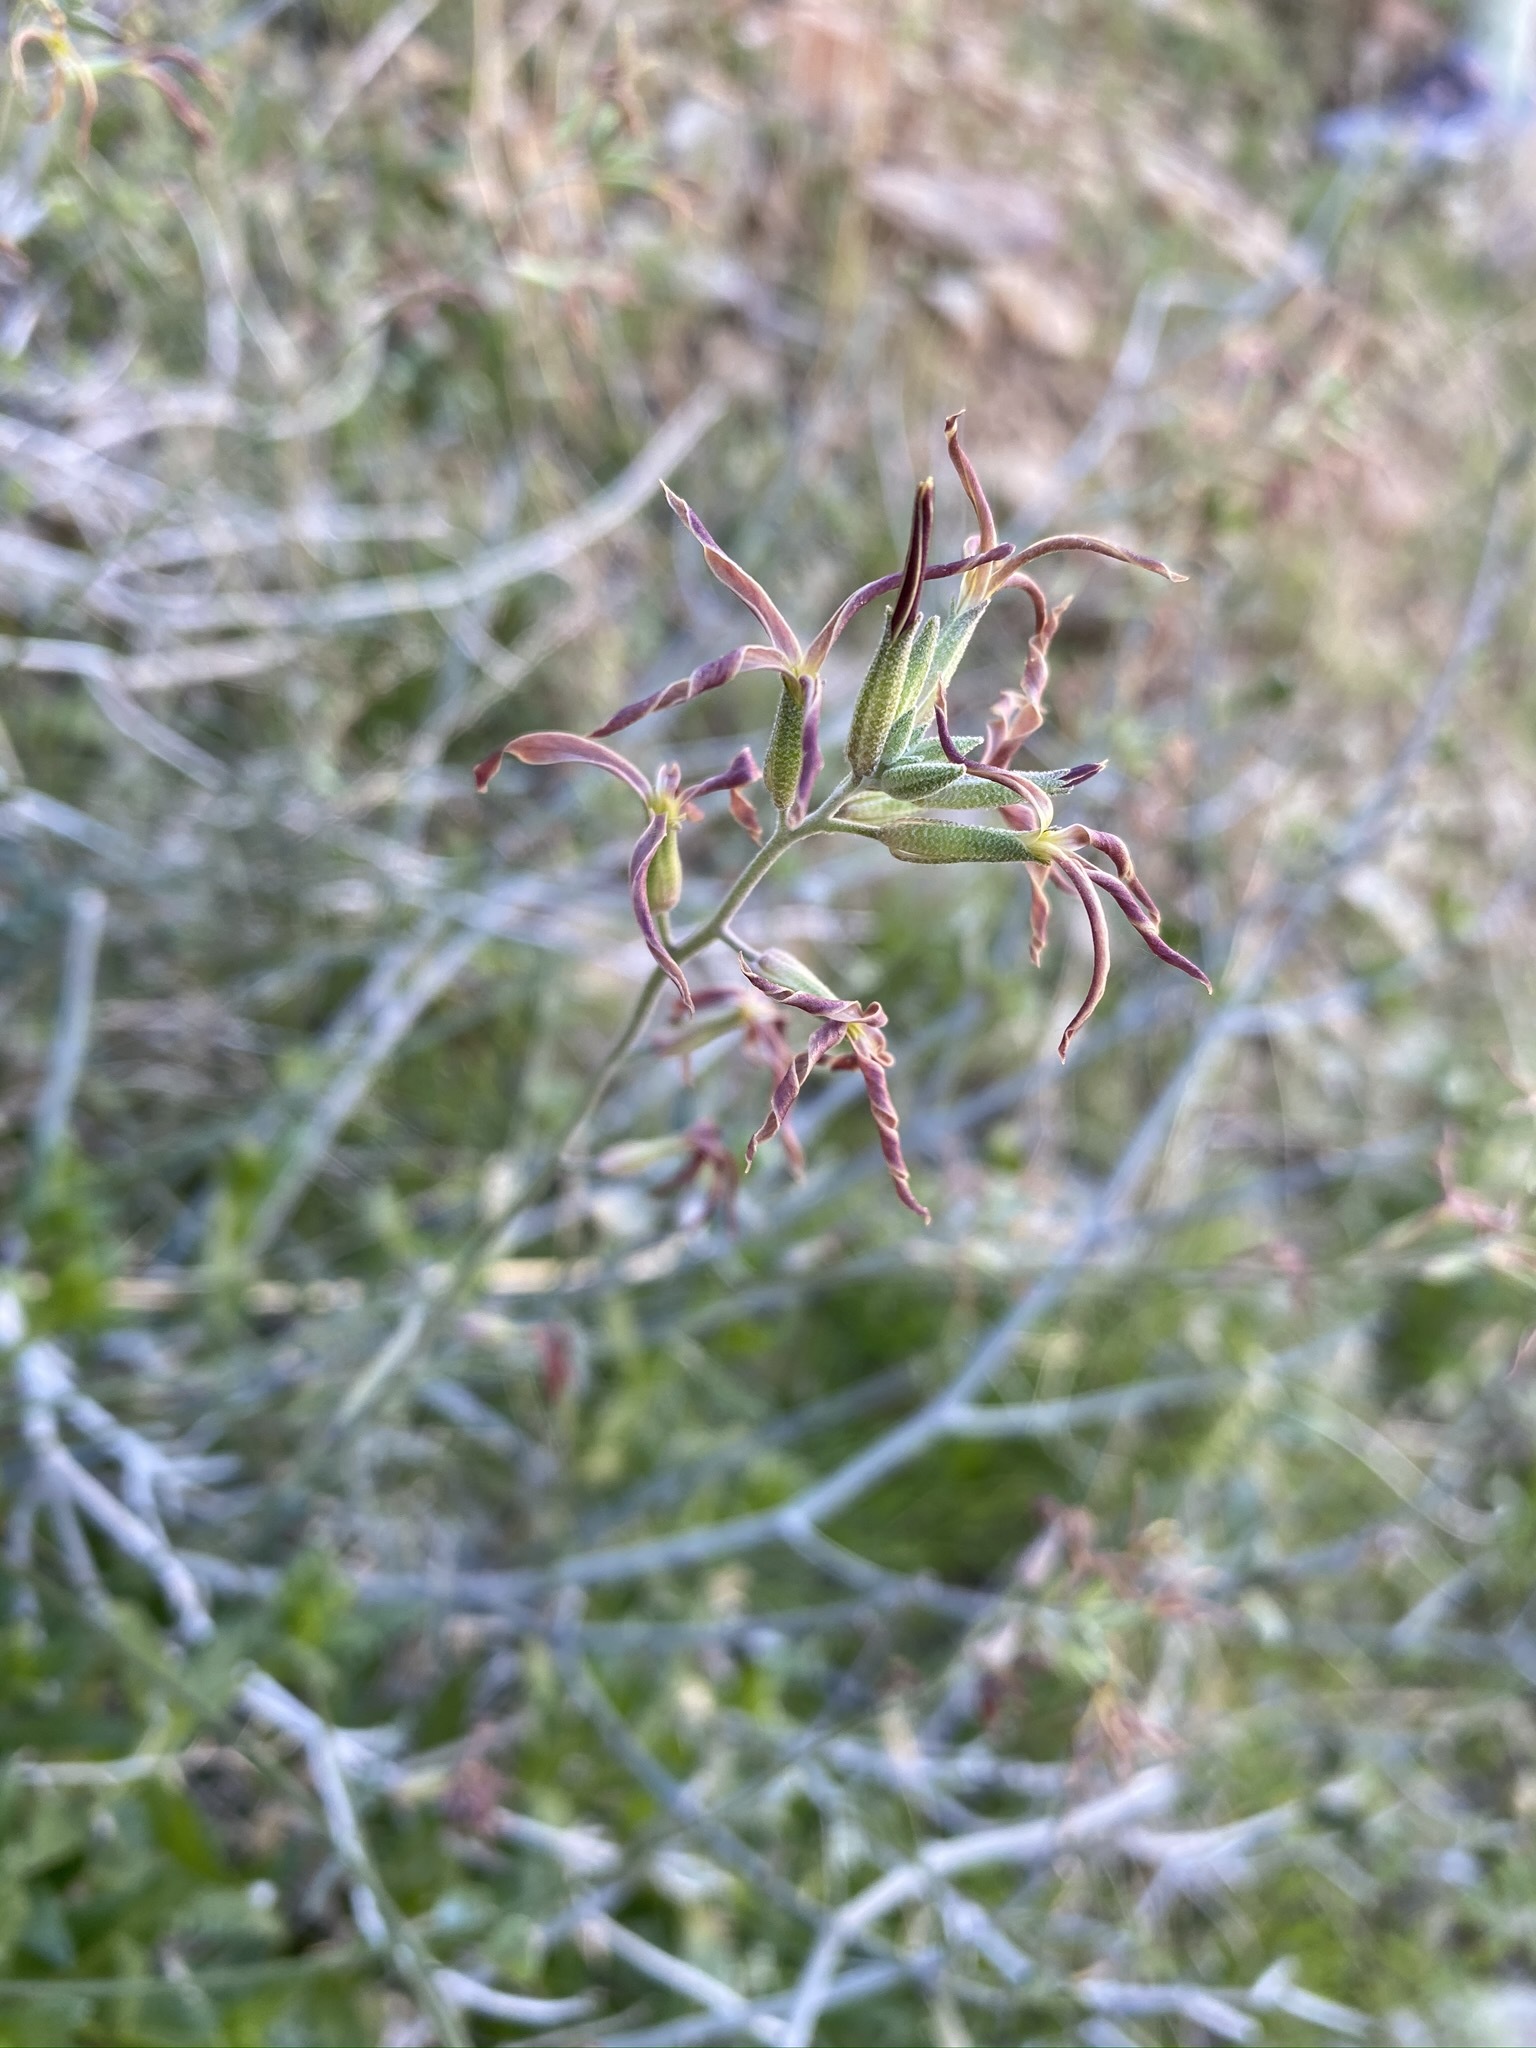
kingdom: Plantae
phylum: Tracheophyta
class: Magnoliopsida
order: Brassicales
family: Brassicaceae
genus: Lyrocarpa
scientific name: Lyrocarpa coulteri
